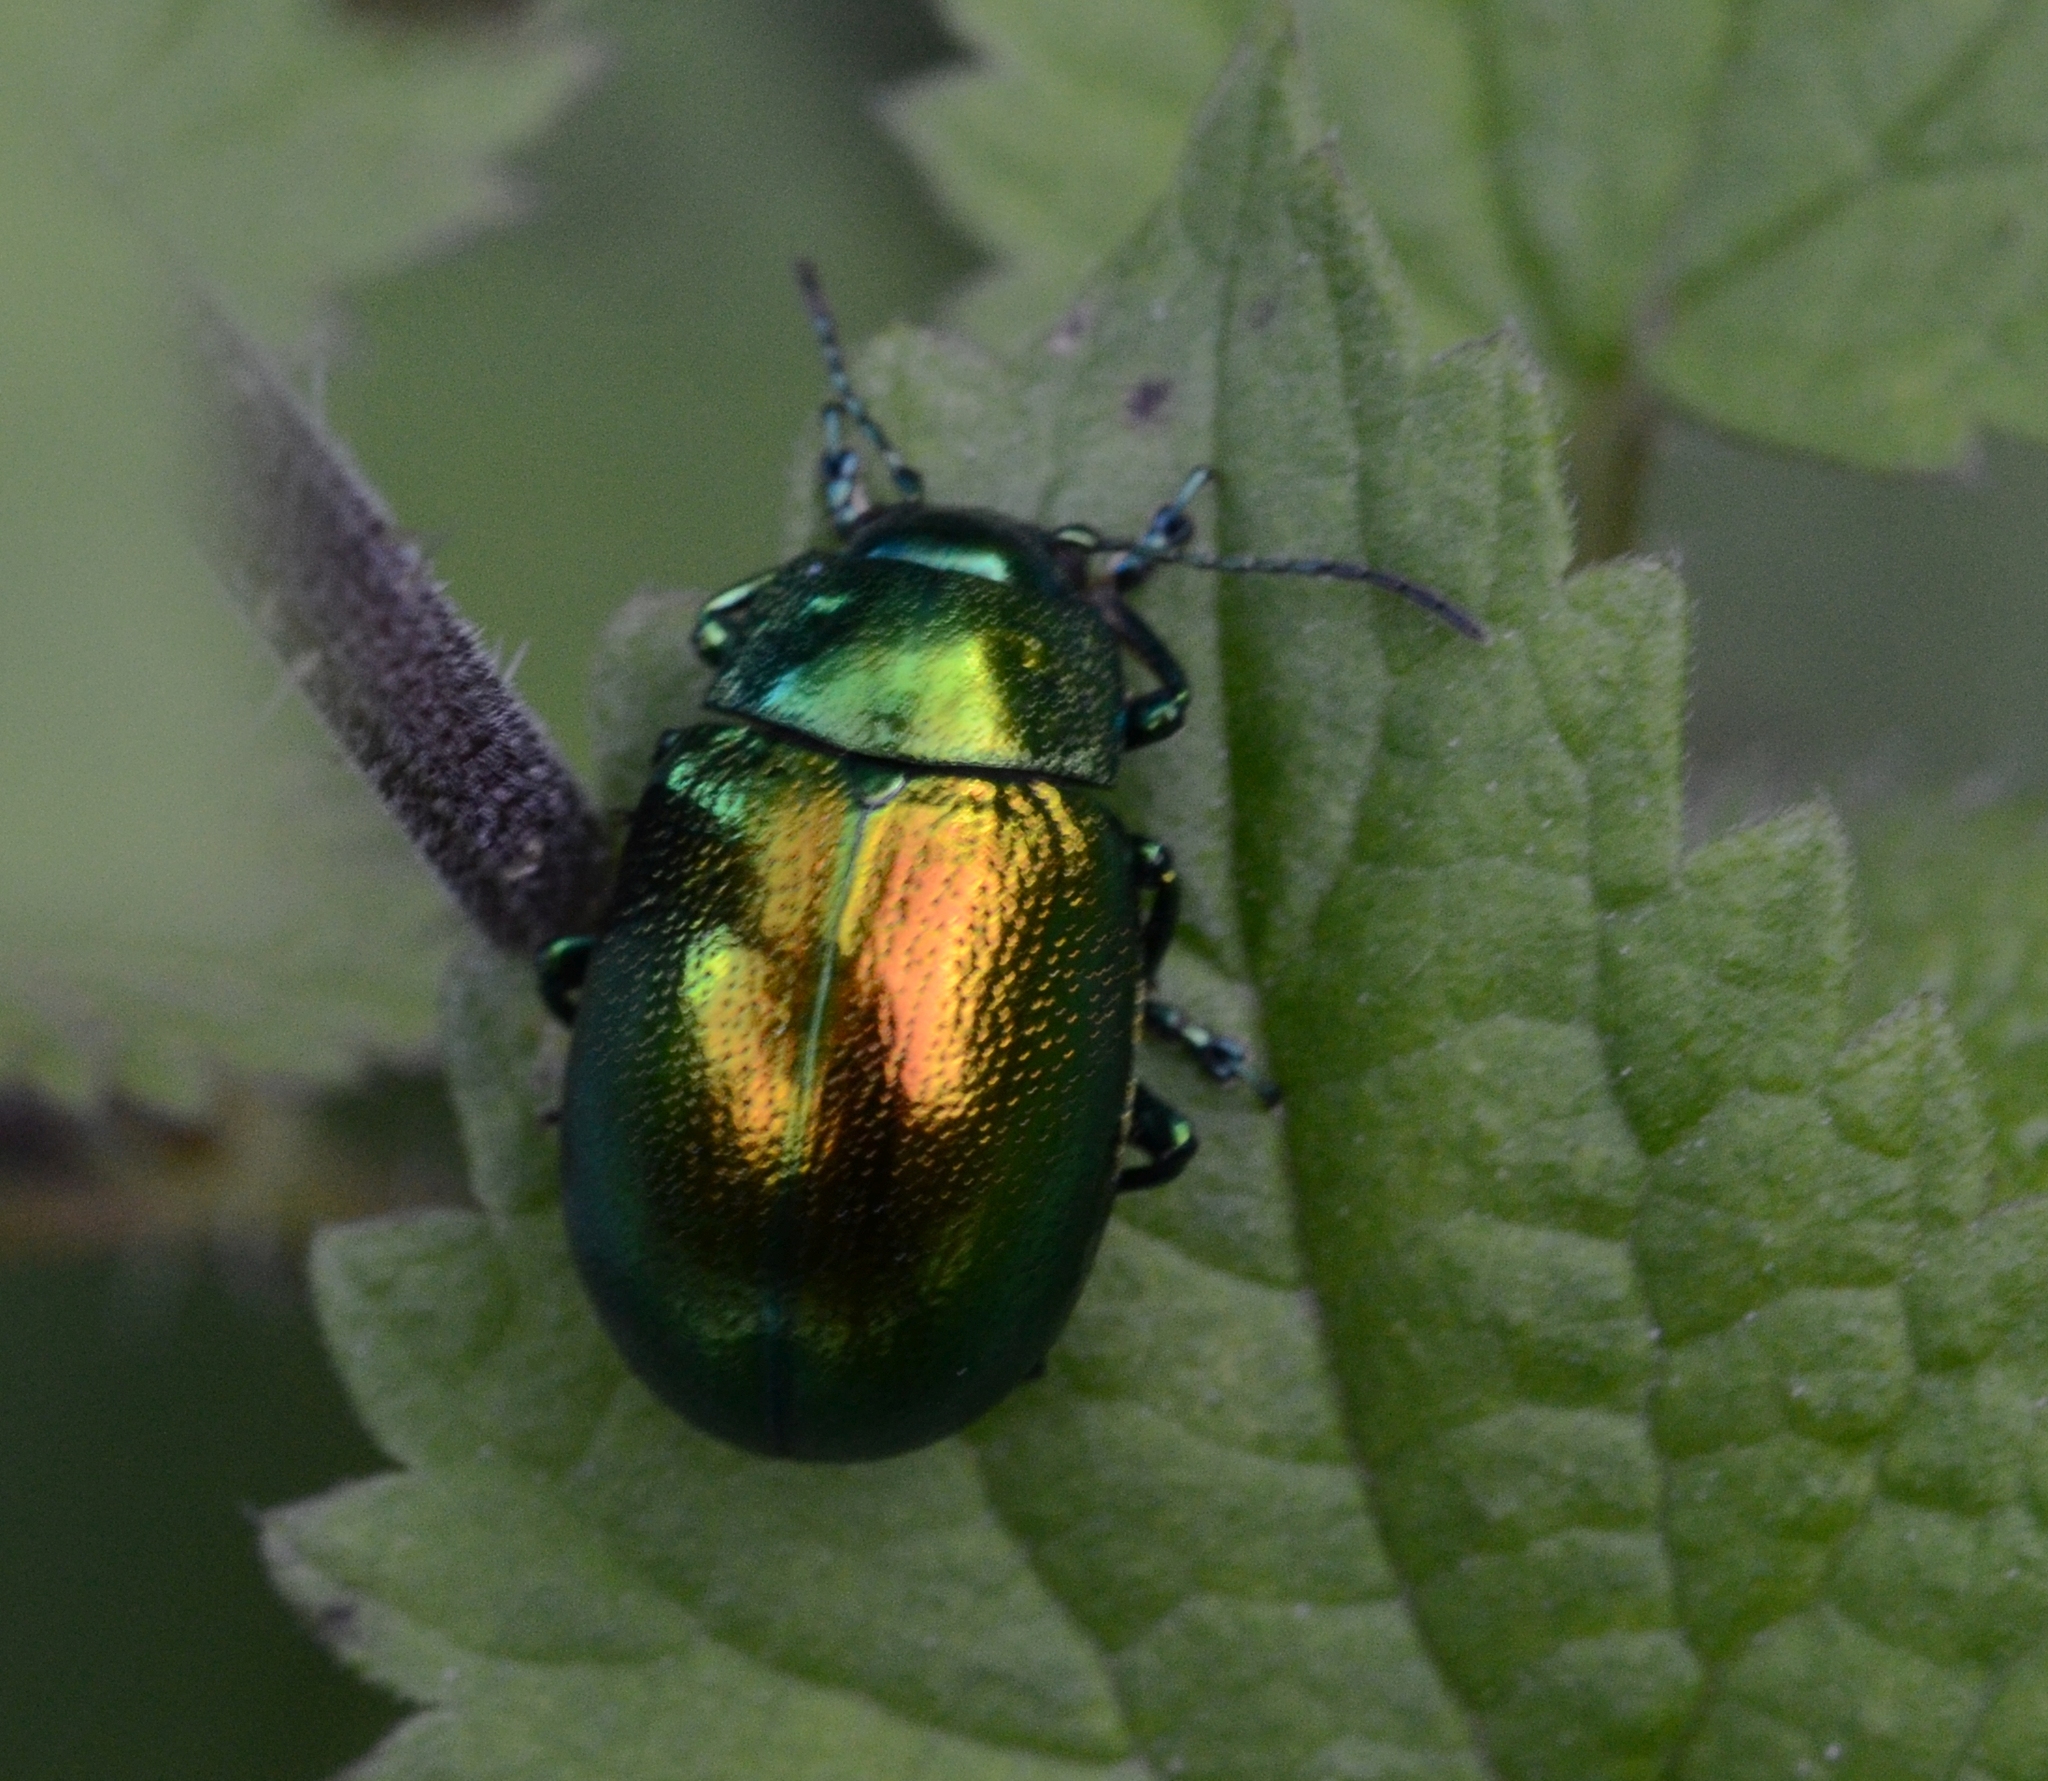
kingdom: Animalia
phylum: Arthropoda
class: Insecta
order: Coleoptera
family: Chrysomelidae
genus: Chrysolina
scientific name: Chrysolina herbacea
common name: Mint leaf beatle
